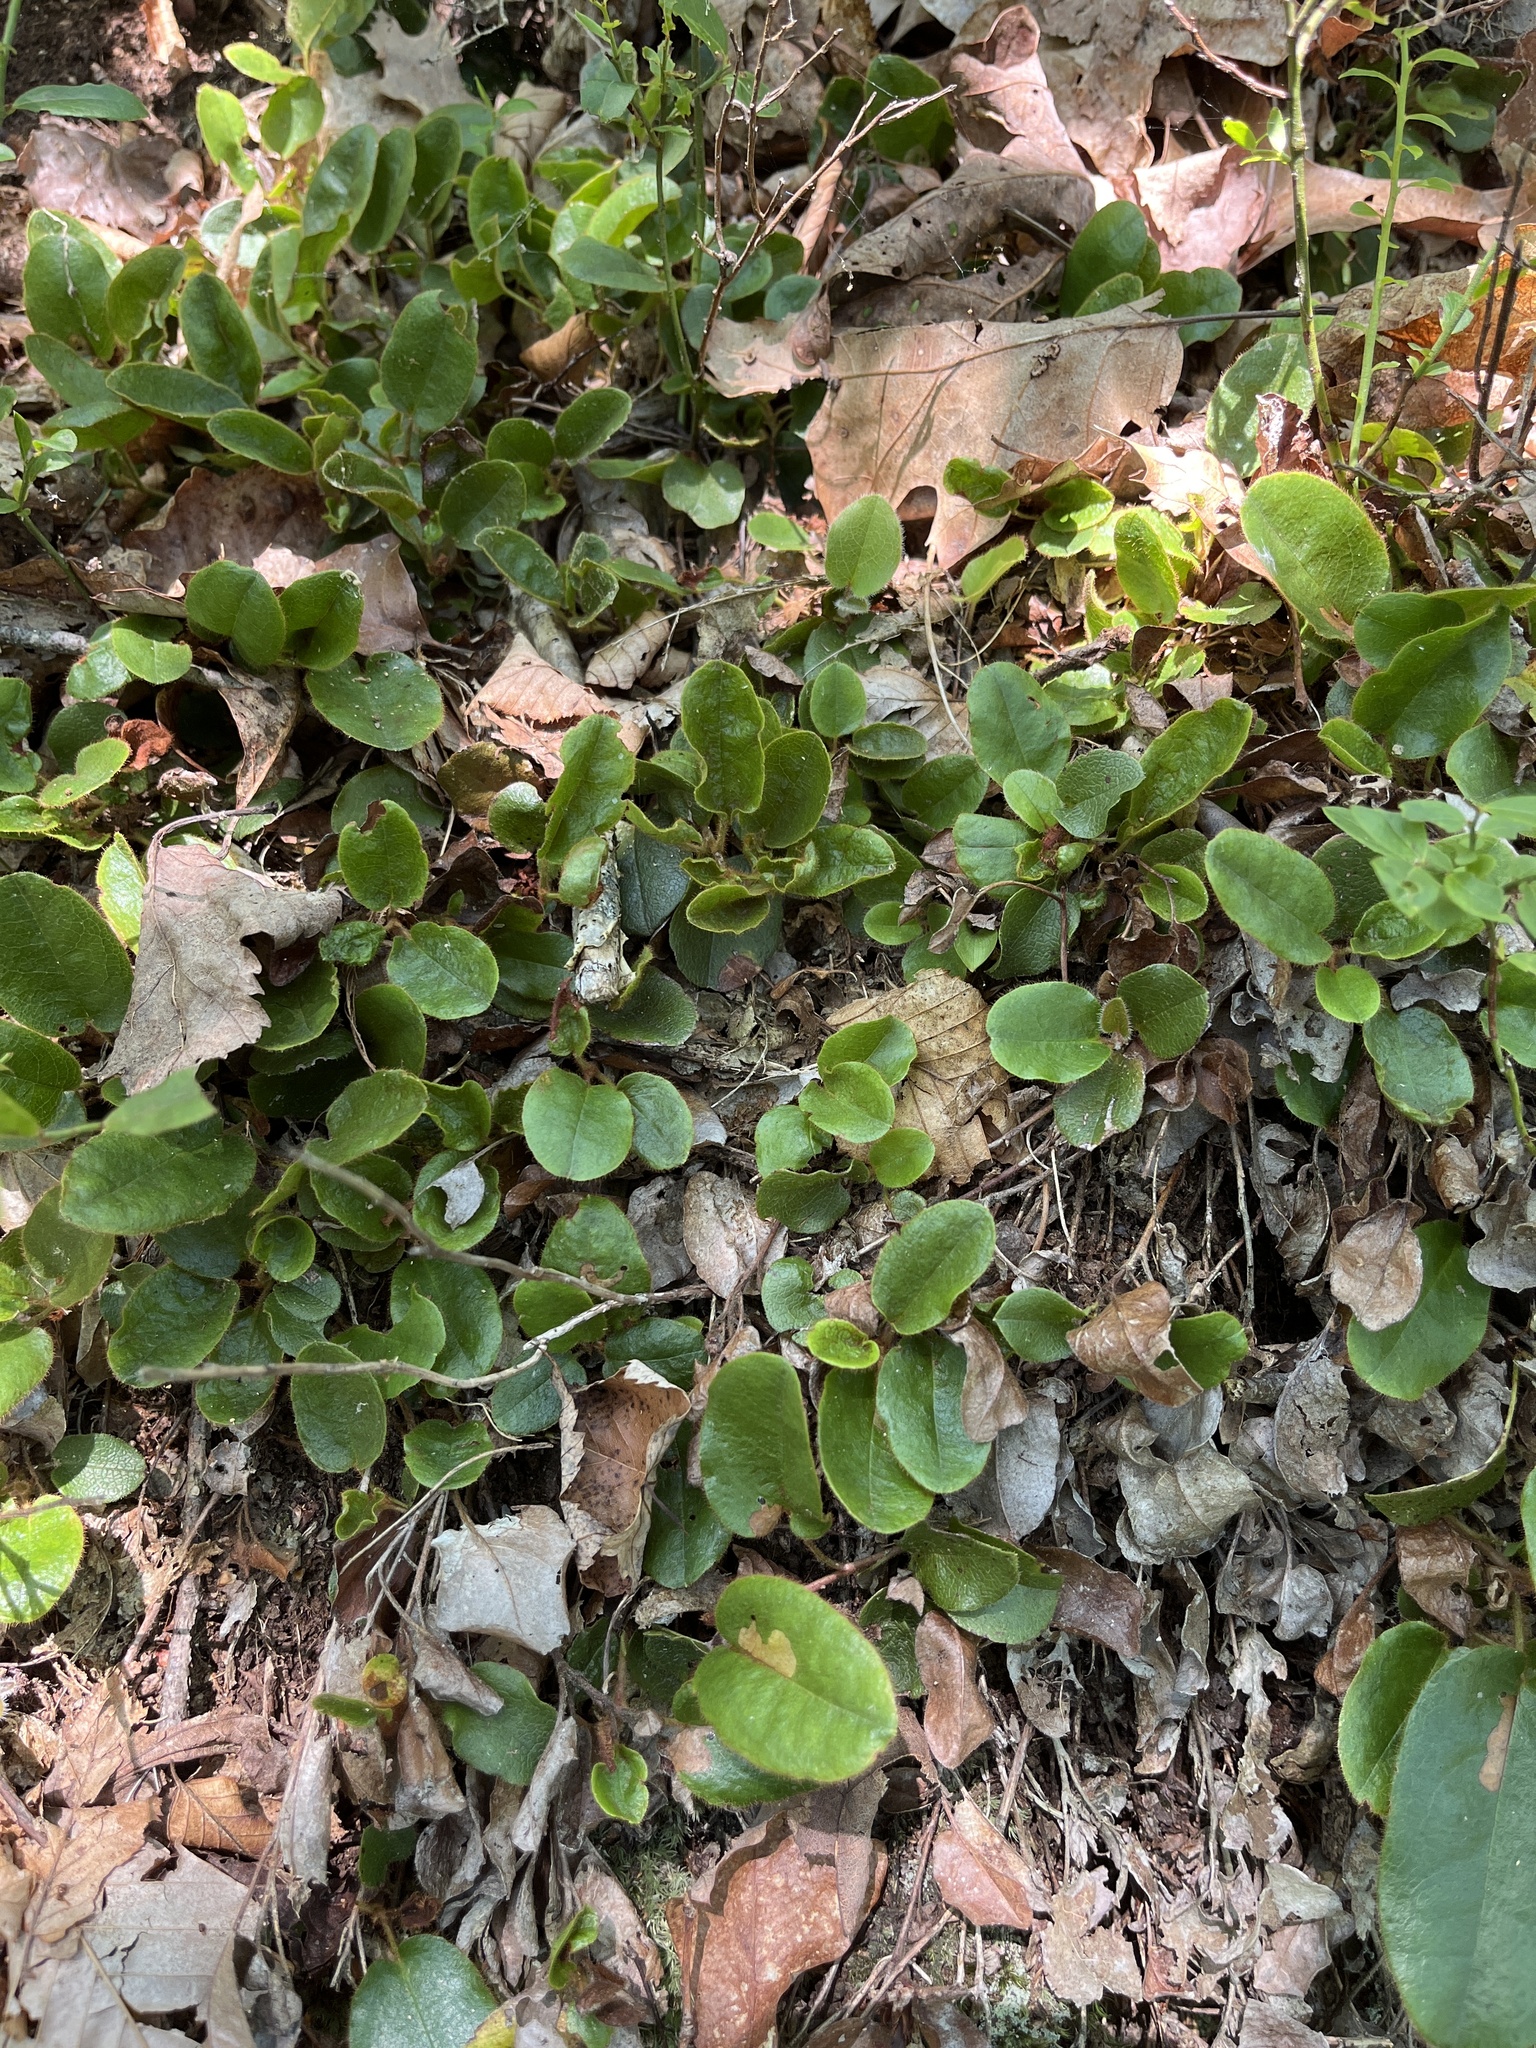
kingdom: Plantae
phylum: Tracheophyta
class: Magnoliopsida
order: Ericales
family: Ericaceae
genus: Epigaea
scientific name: Epigaea repens
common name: Gravelroot
